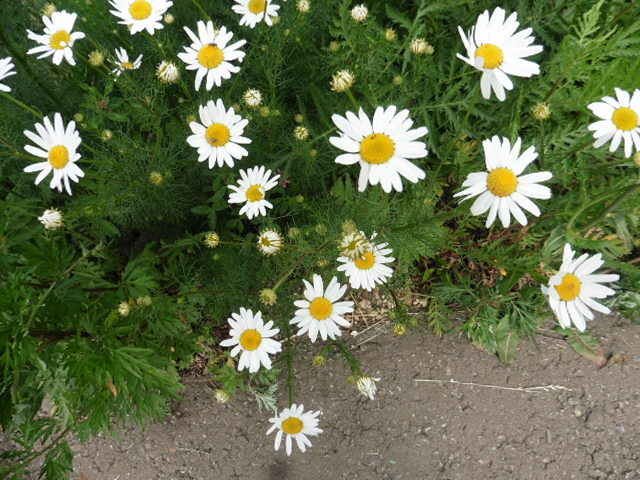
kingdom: Plantae
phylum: Tracheophyta
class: Magnoliopsida
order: Asterales
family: Asteraceae
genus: Tripleurospermum
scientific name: Tripleurospermum inodorum
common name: Scentless mayweed
